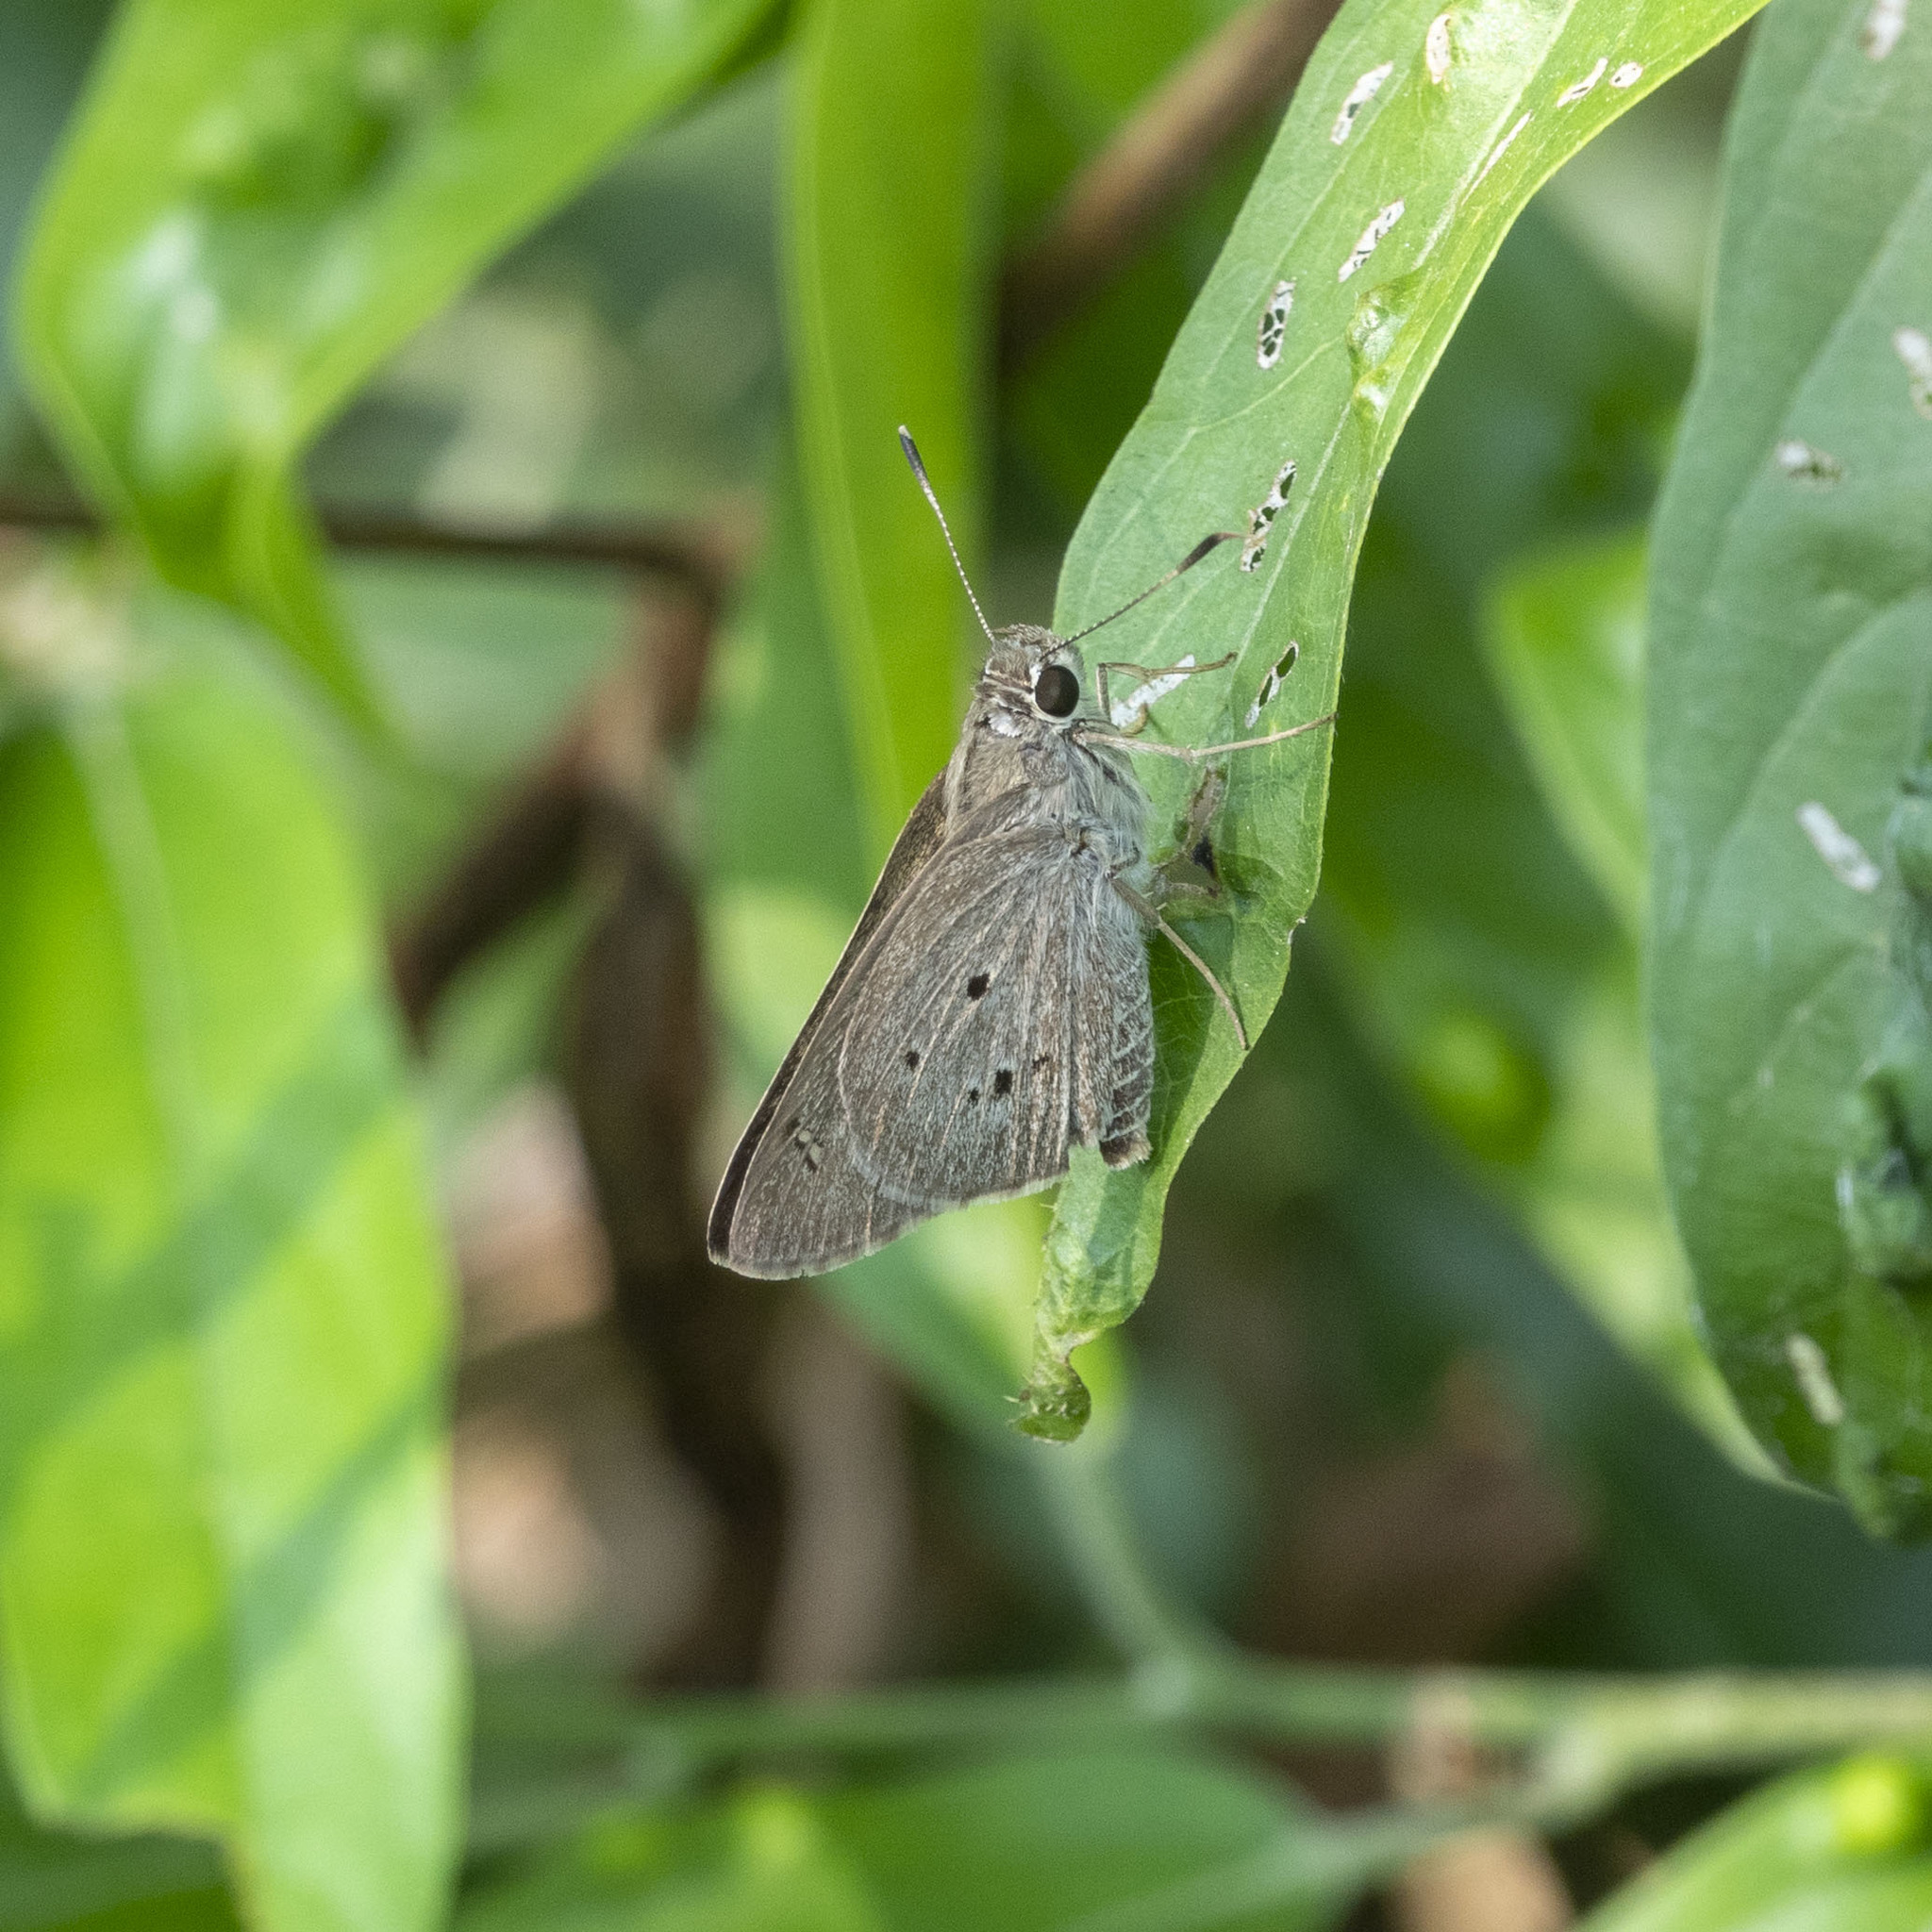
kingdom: Animalia
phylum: Arthropoda
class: Insecta
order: Lepidoptera
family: Hesperiidae
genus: Suastus
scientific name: Suastus gremius
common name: Indian palm bob
